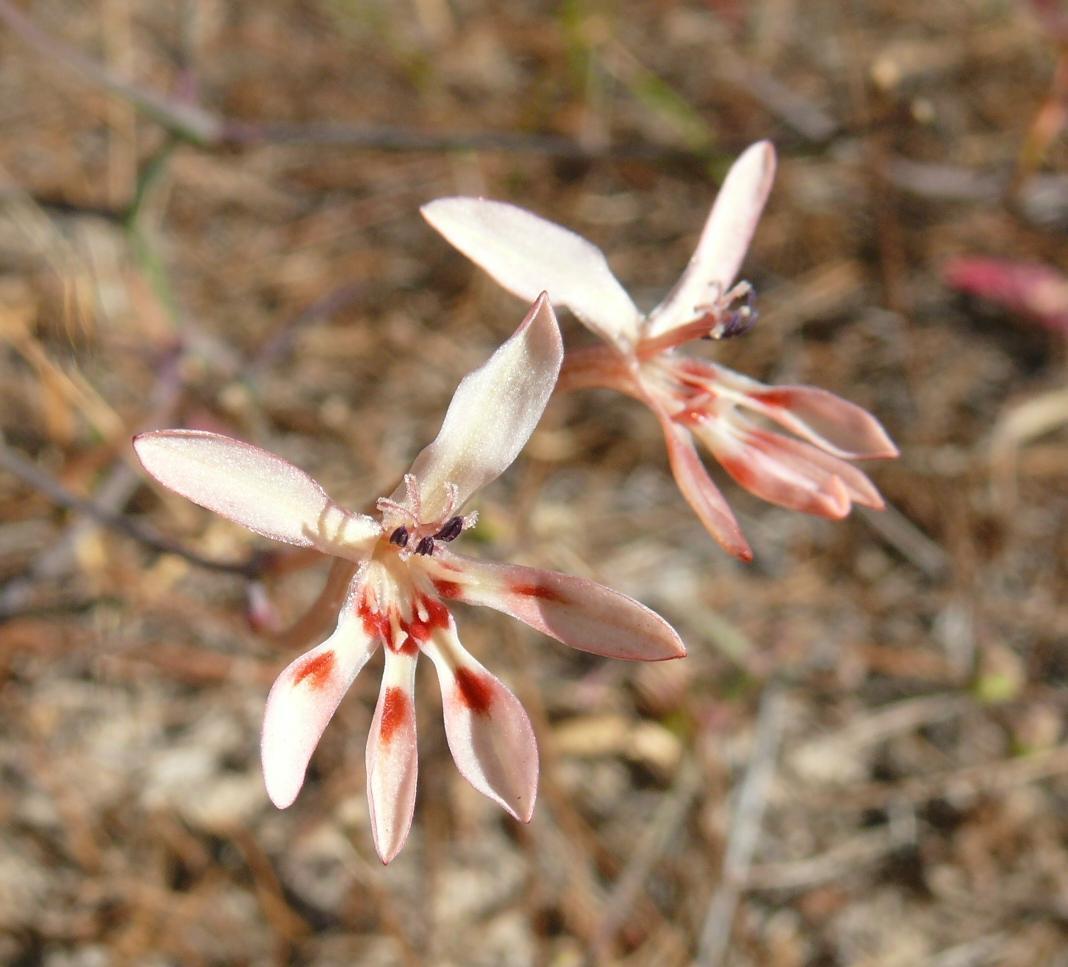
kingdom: Plantae
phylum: Tracheophyta
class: Liliopsida
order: Asparagales
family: Iridaceae
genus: Lapeirousia
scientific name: Lapeirousia anceps
